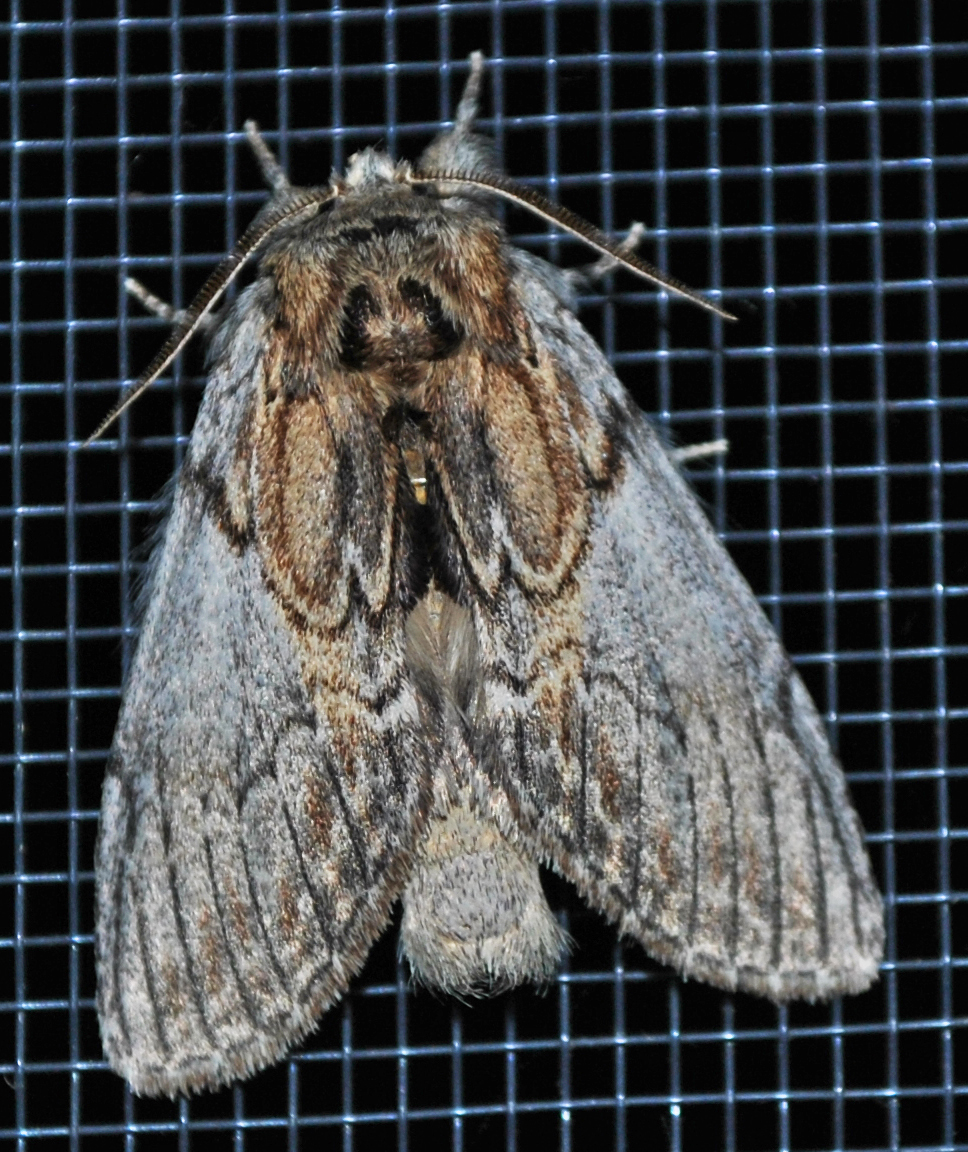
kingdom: Animalia
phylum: Arthropoda
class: Insecta
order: Lepidoptera
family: Notodontidae
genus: Peridea
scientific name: Peridea basitriens
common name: Oval-based prominent
